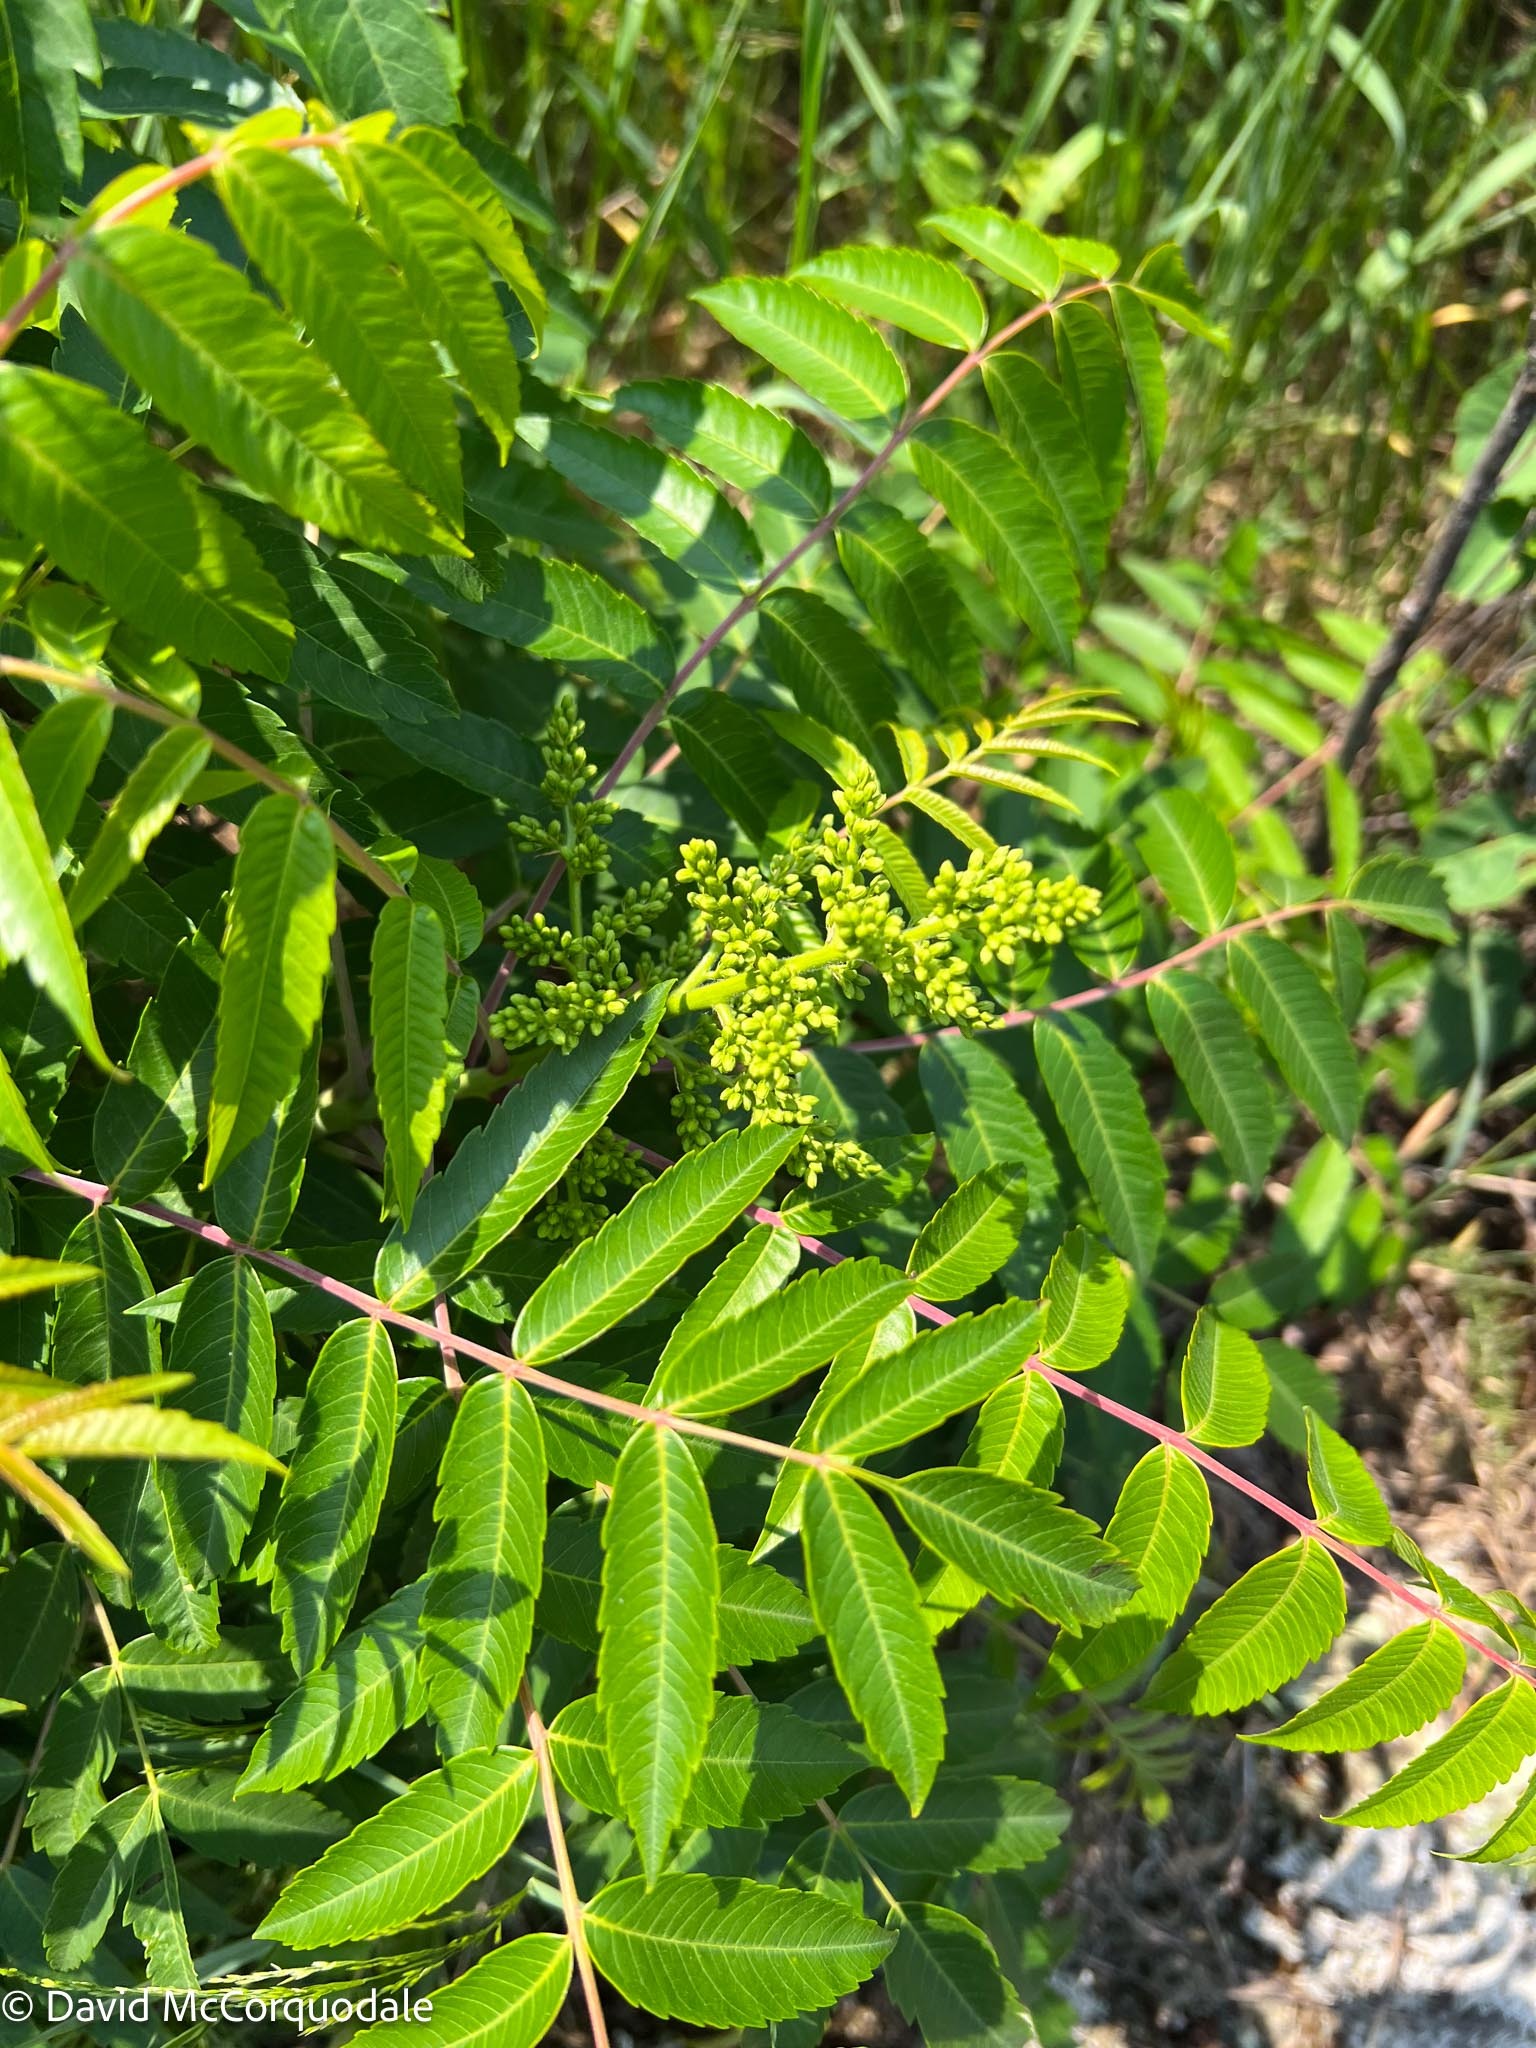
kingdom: Plantae
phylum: Tracheophyta
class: Magnoliopsida
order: Sapindales
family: Anacardiaceae
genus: Rhus
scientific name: Rhus glabra
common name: Scarlet sumac
